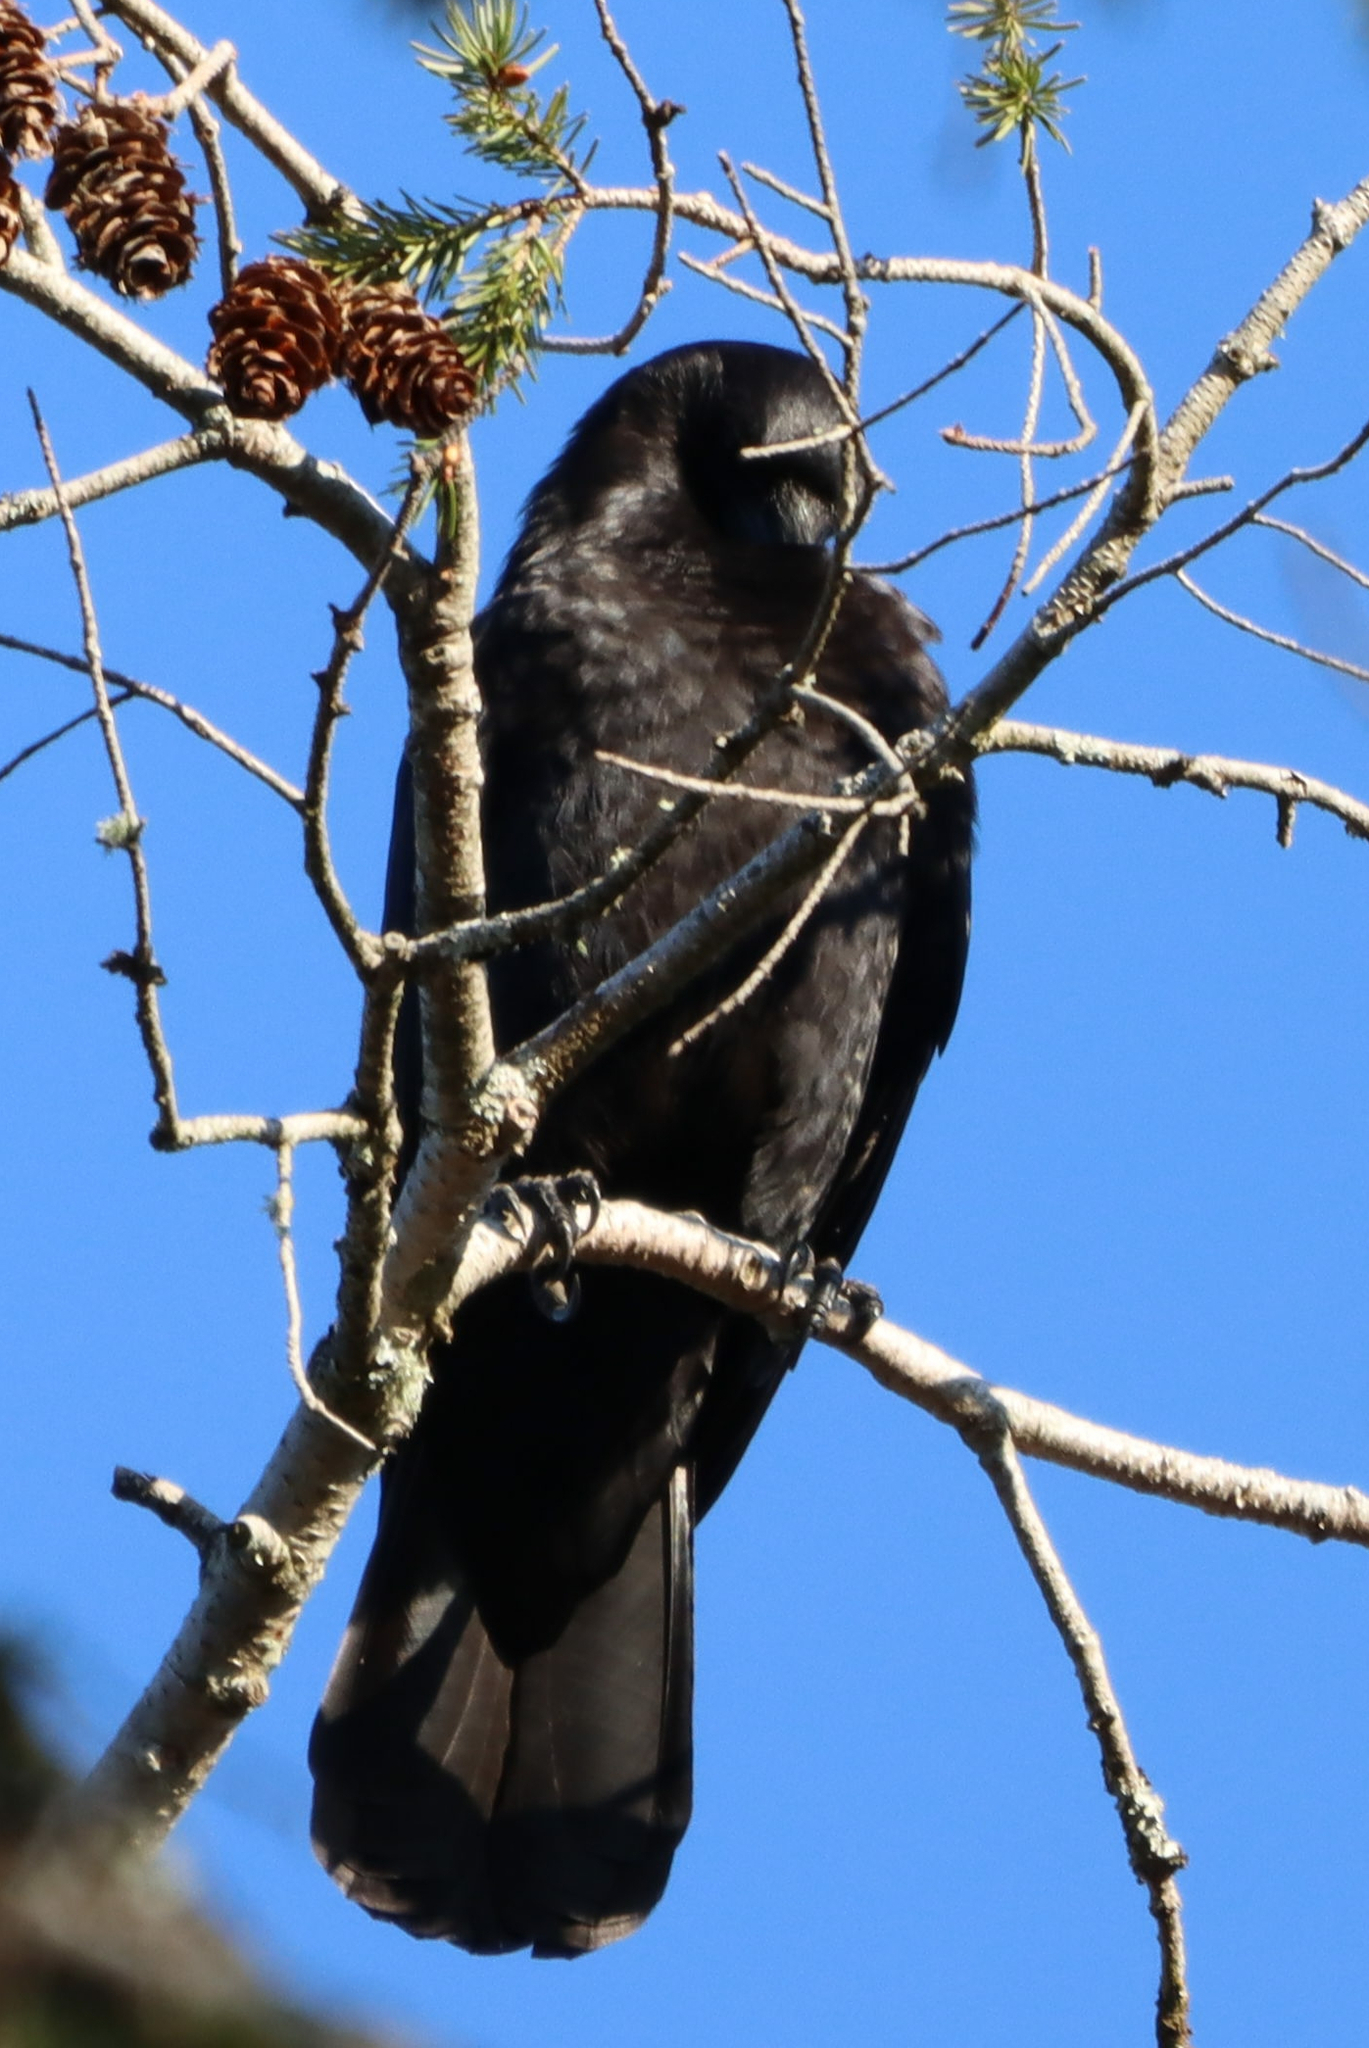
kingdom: Animalia
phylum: Chordata
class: Aves
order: Passeriformes
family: Corvidae
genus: Corvus
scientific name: Corvus brachyrhynchos
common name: American crow
